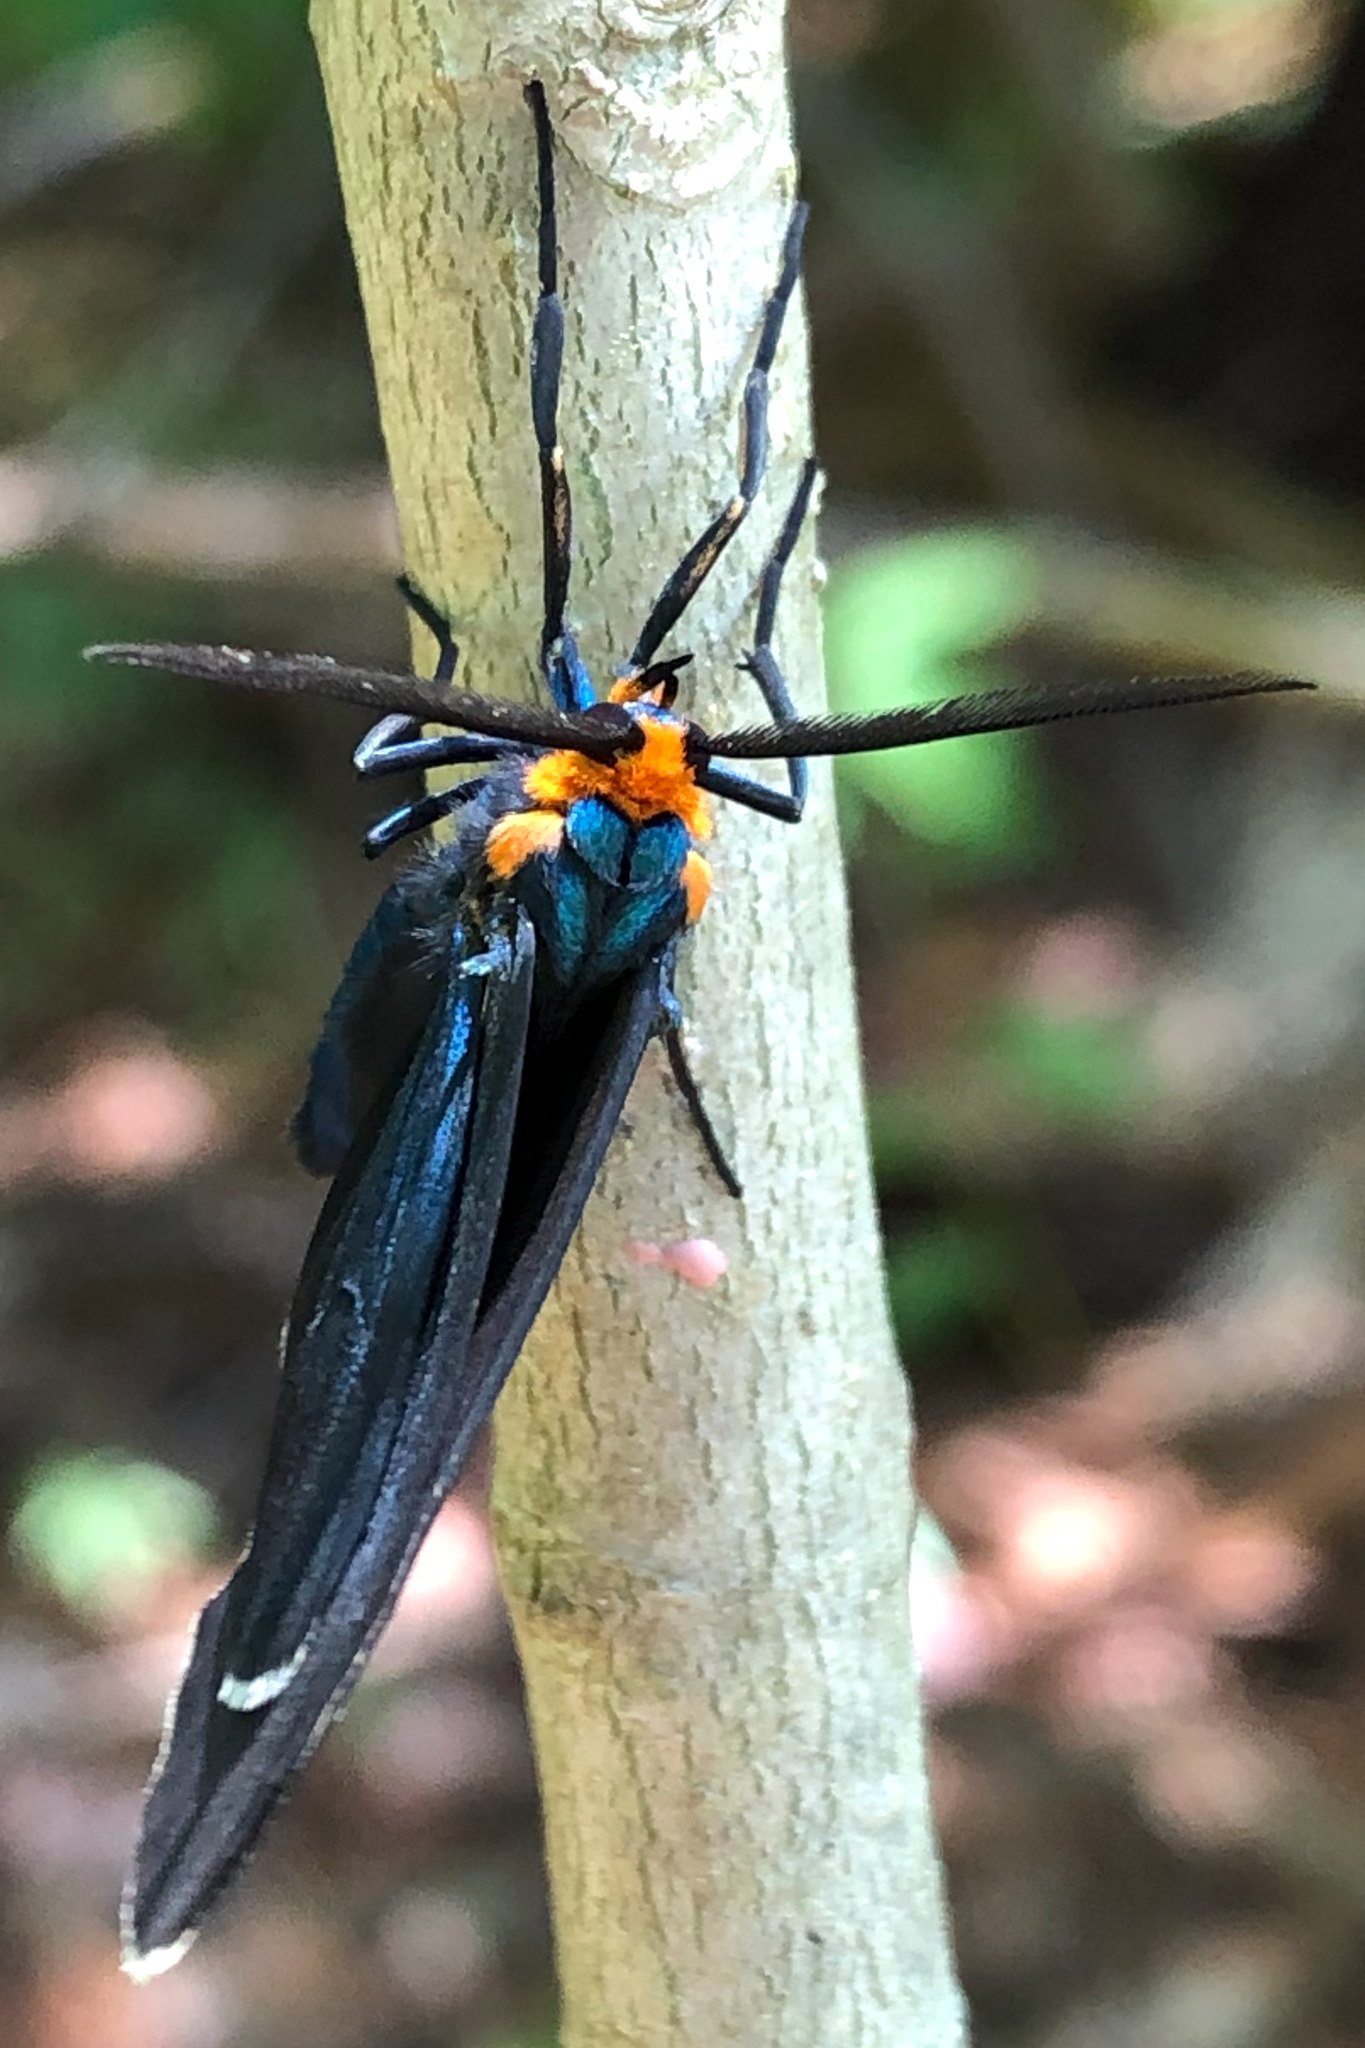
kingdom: Animalia
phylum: Arthropoda
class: Insecta
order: Lepidoptera
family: Erebidae
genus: Ctenucha
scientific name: Ctenucha virginica
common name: Virginia ctenucha moth
